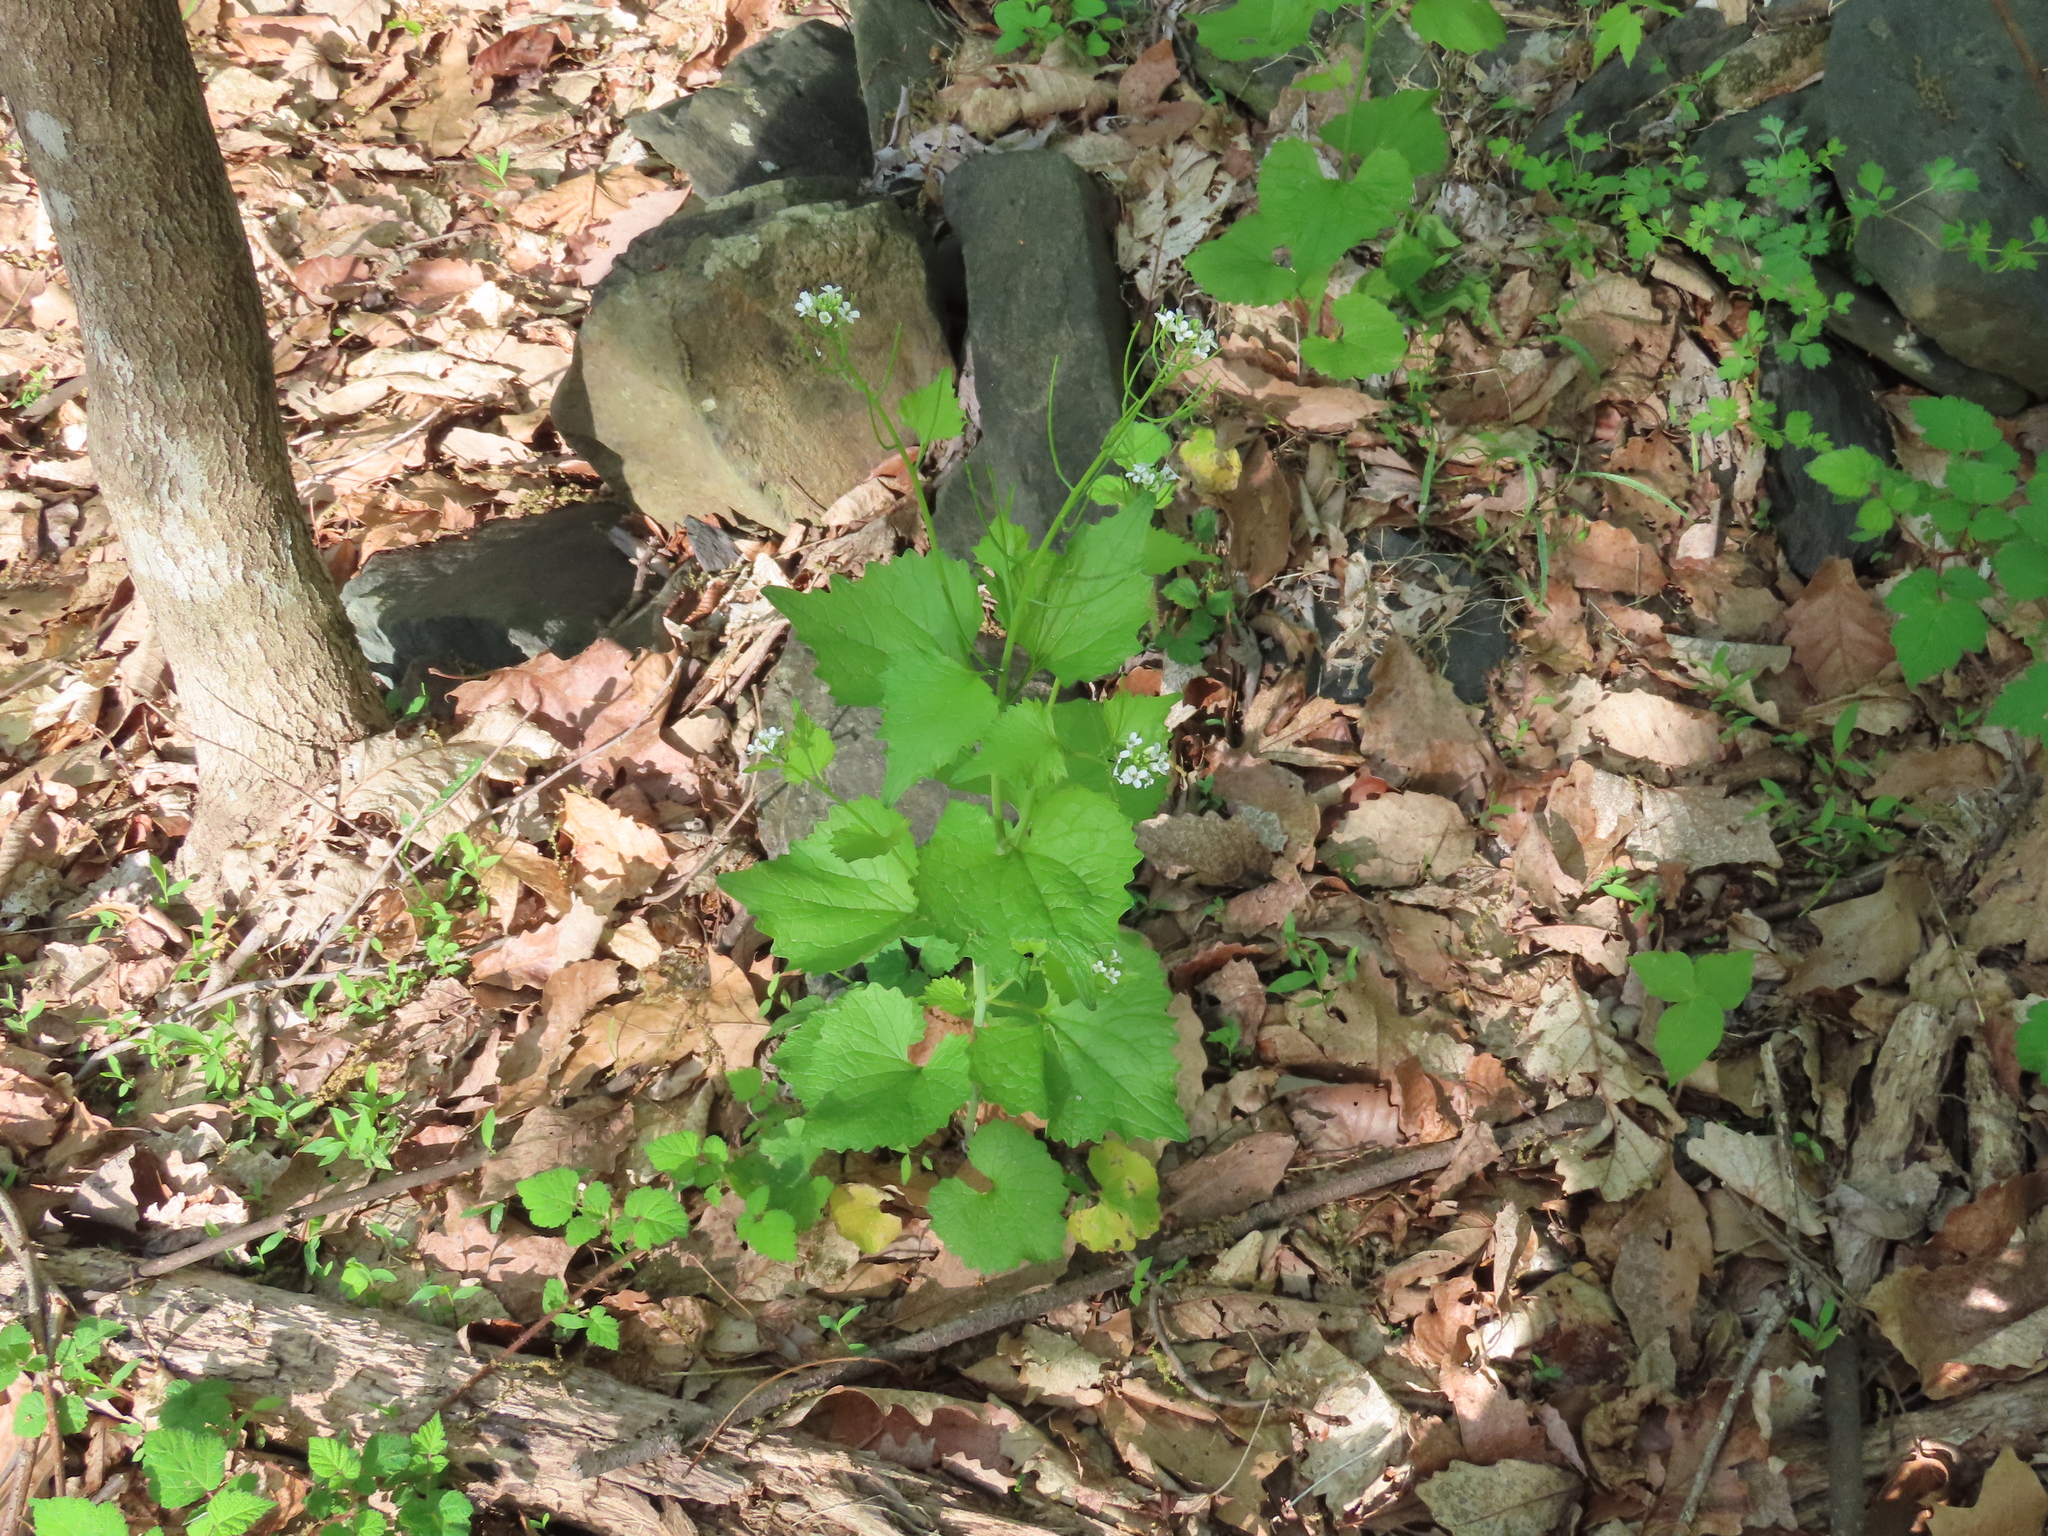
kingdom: Plantae
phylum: Tracheophyta
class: Magnoliopsida
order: Brassicales
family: Brassicaceae
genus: Alliaria
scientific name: Alliaria petiolata
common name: Garlic mustard
